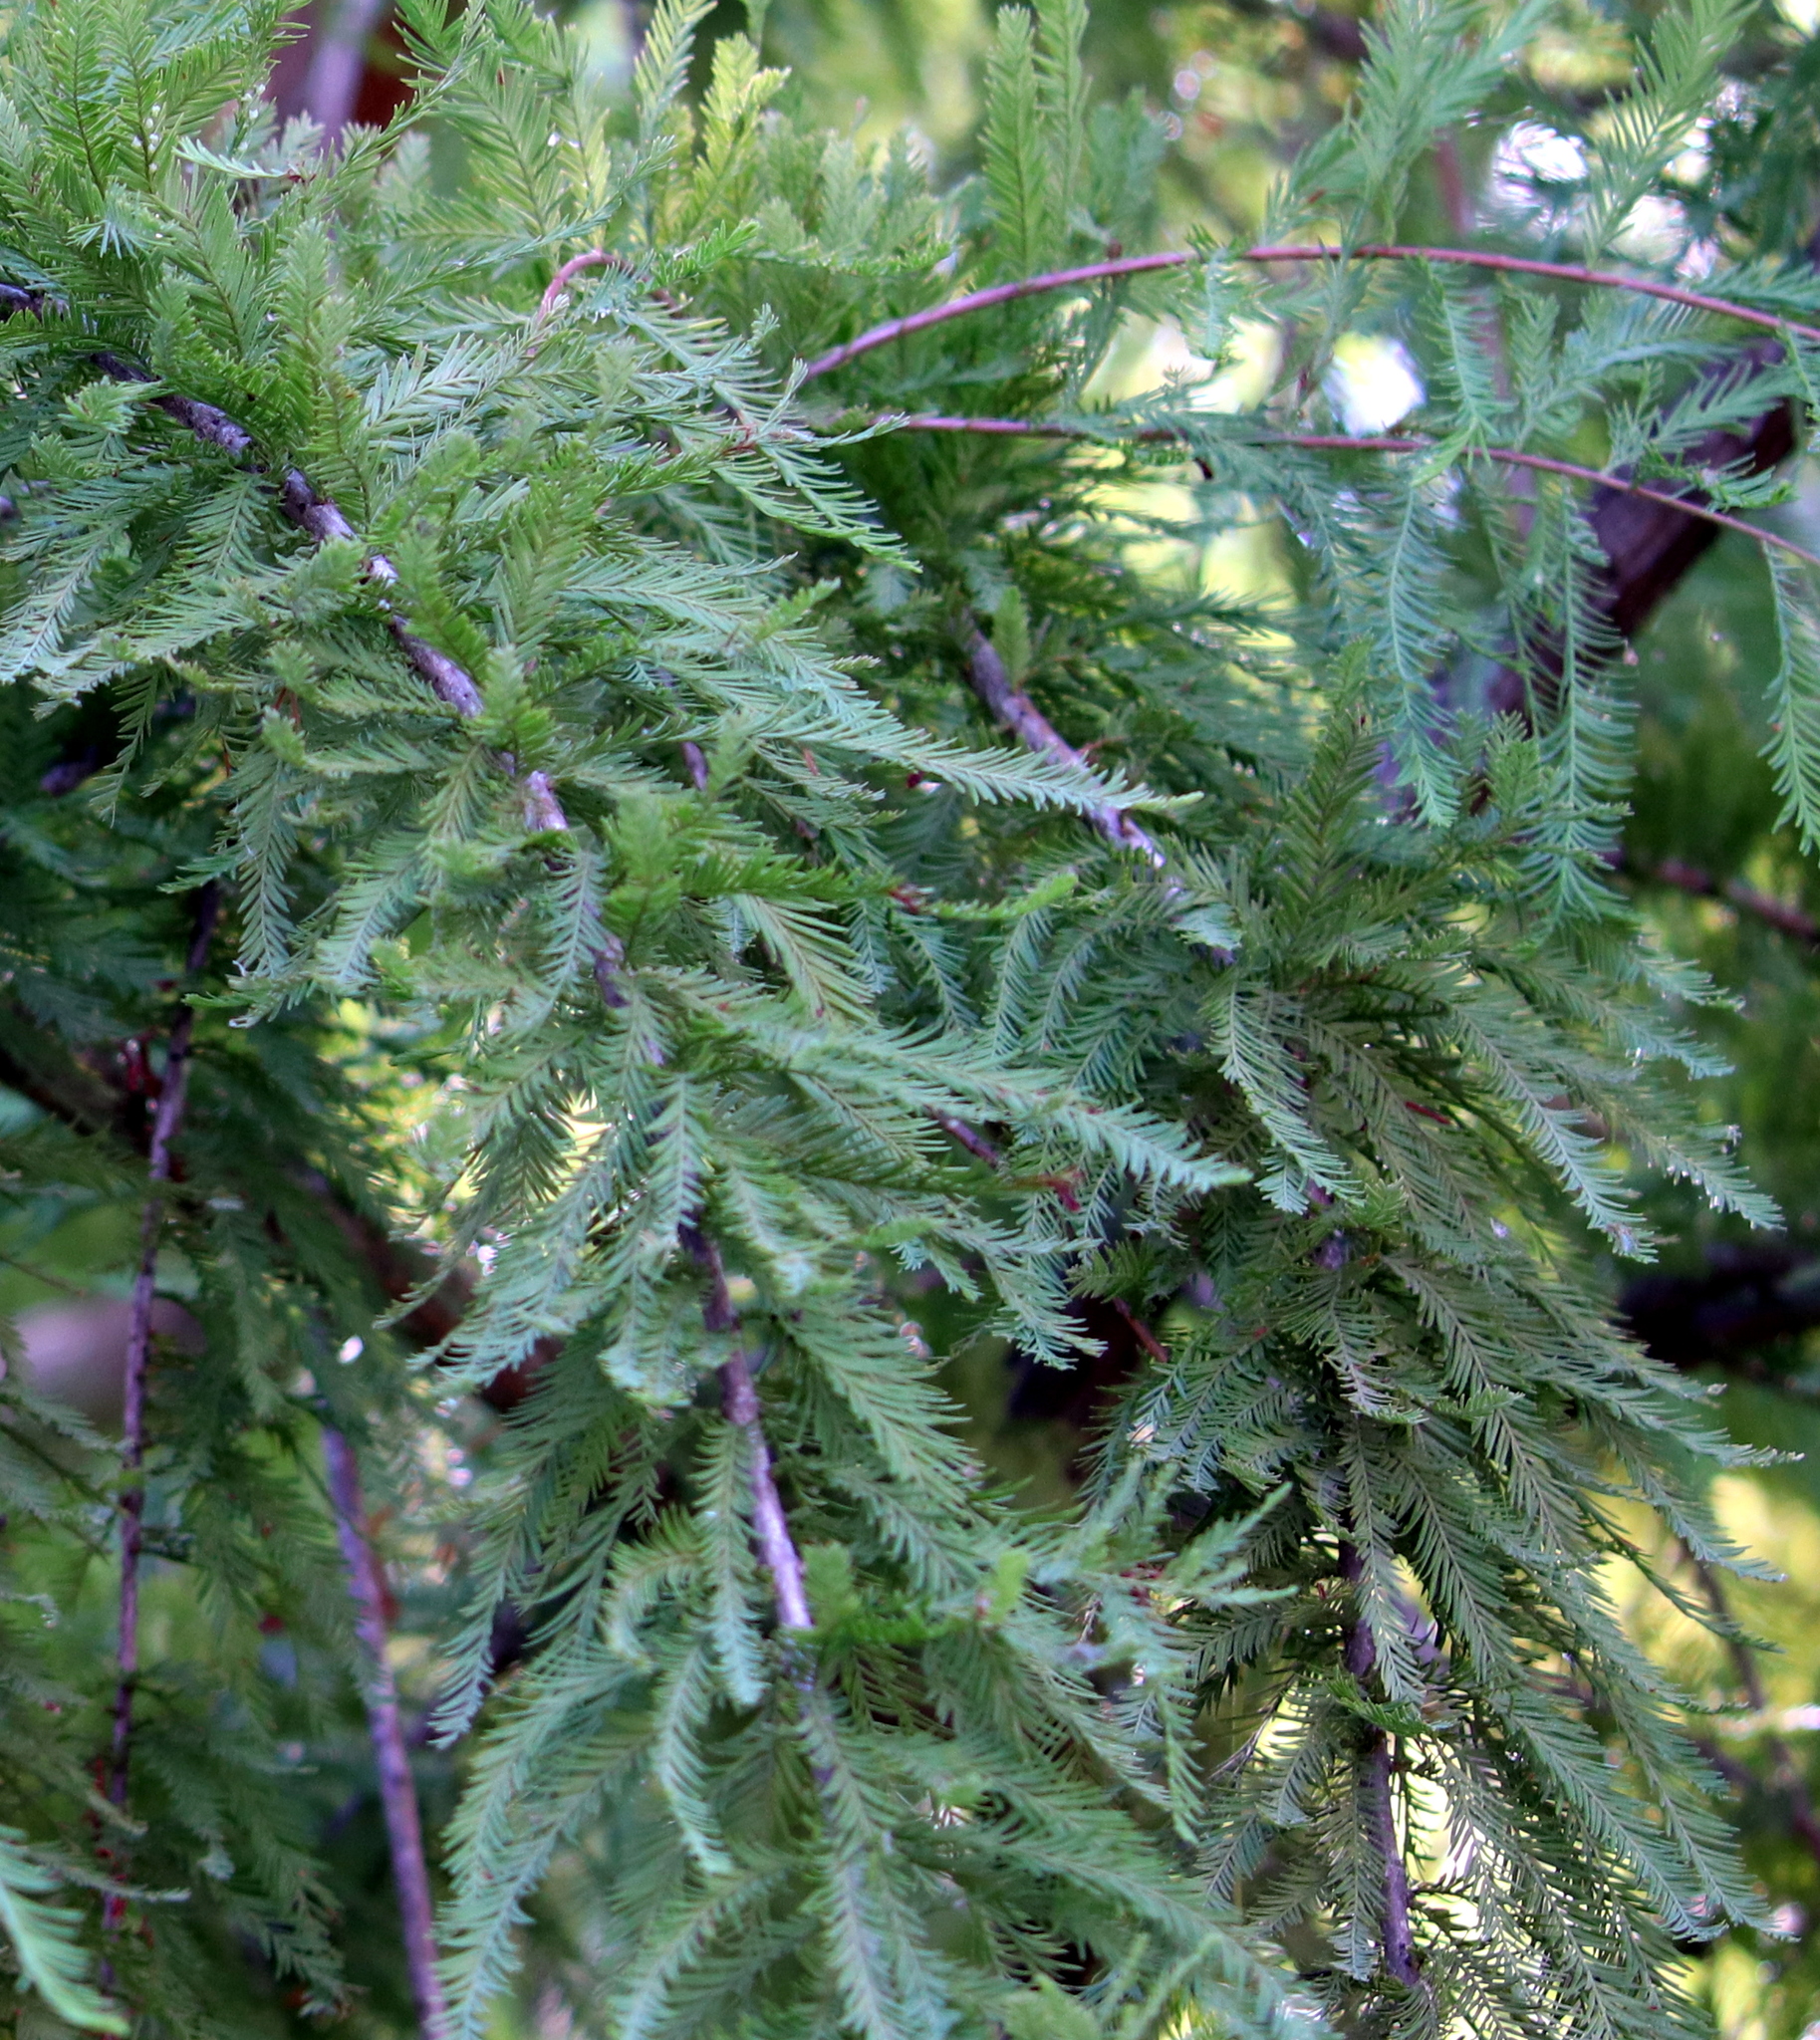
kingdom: Plantae
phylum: Tracheophyta
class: Pinopsida
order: Pinales
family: Cupressaceae
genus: Taxodium
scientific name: Taxodium distichum
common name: Bald cypress
